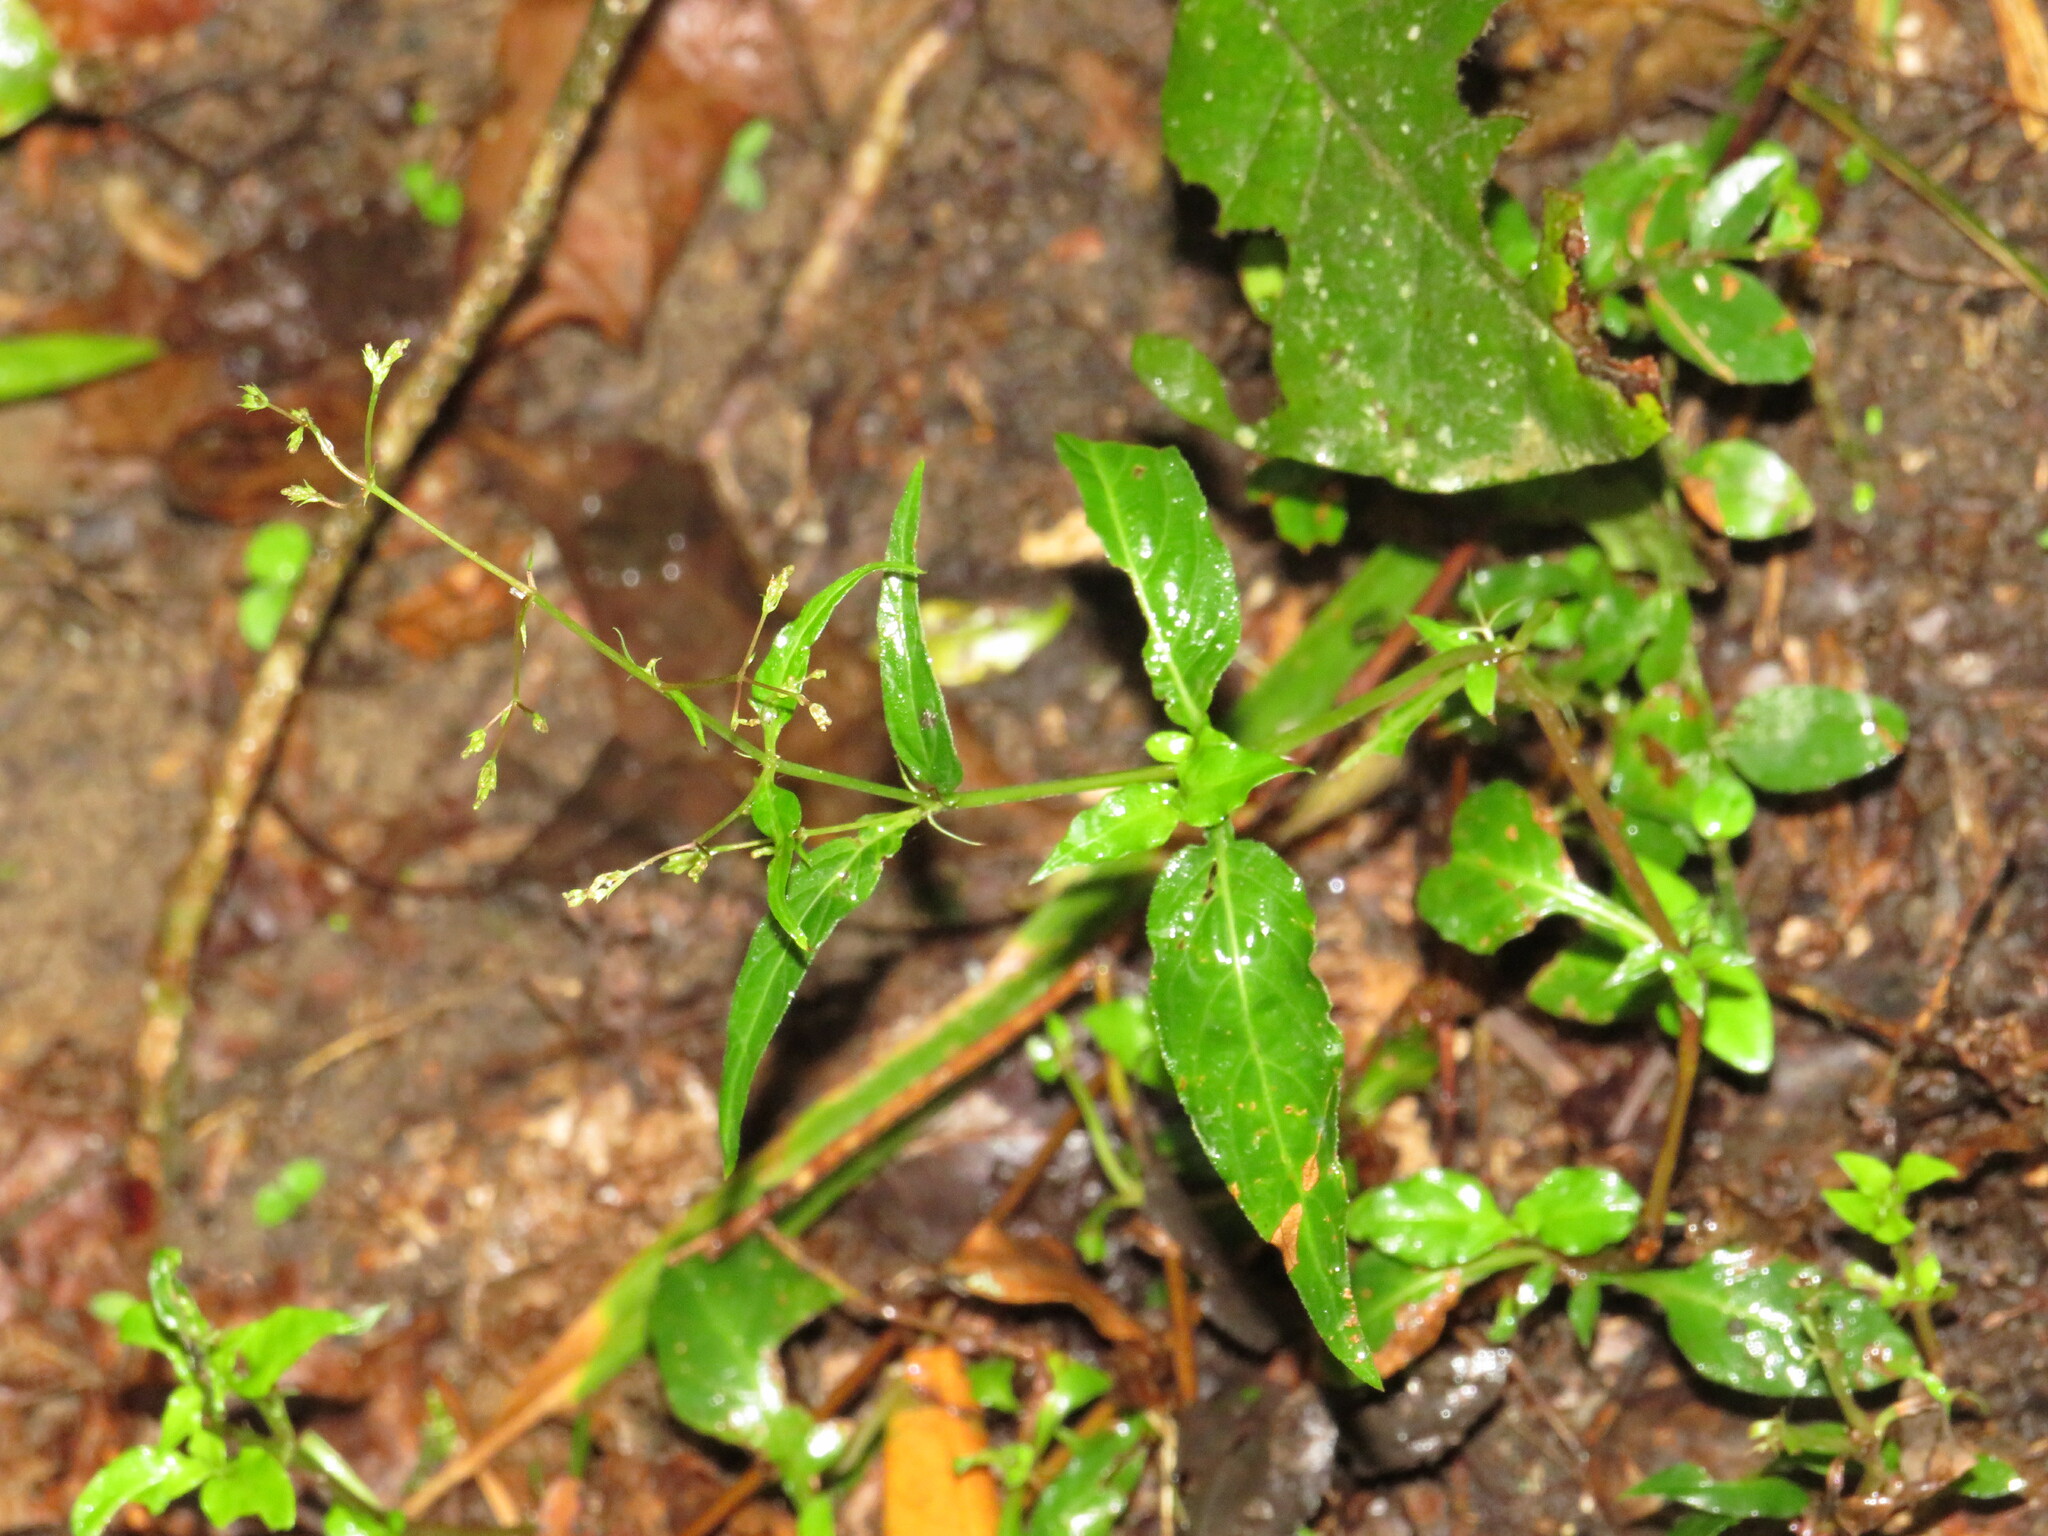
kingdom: Plantae
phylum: Tracheophyta
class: Magnoliopsida
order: Gentianales
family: Rubiaceae
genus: Galopina
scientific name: Galopina circaeoides
